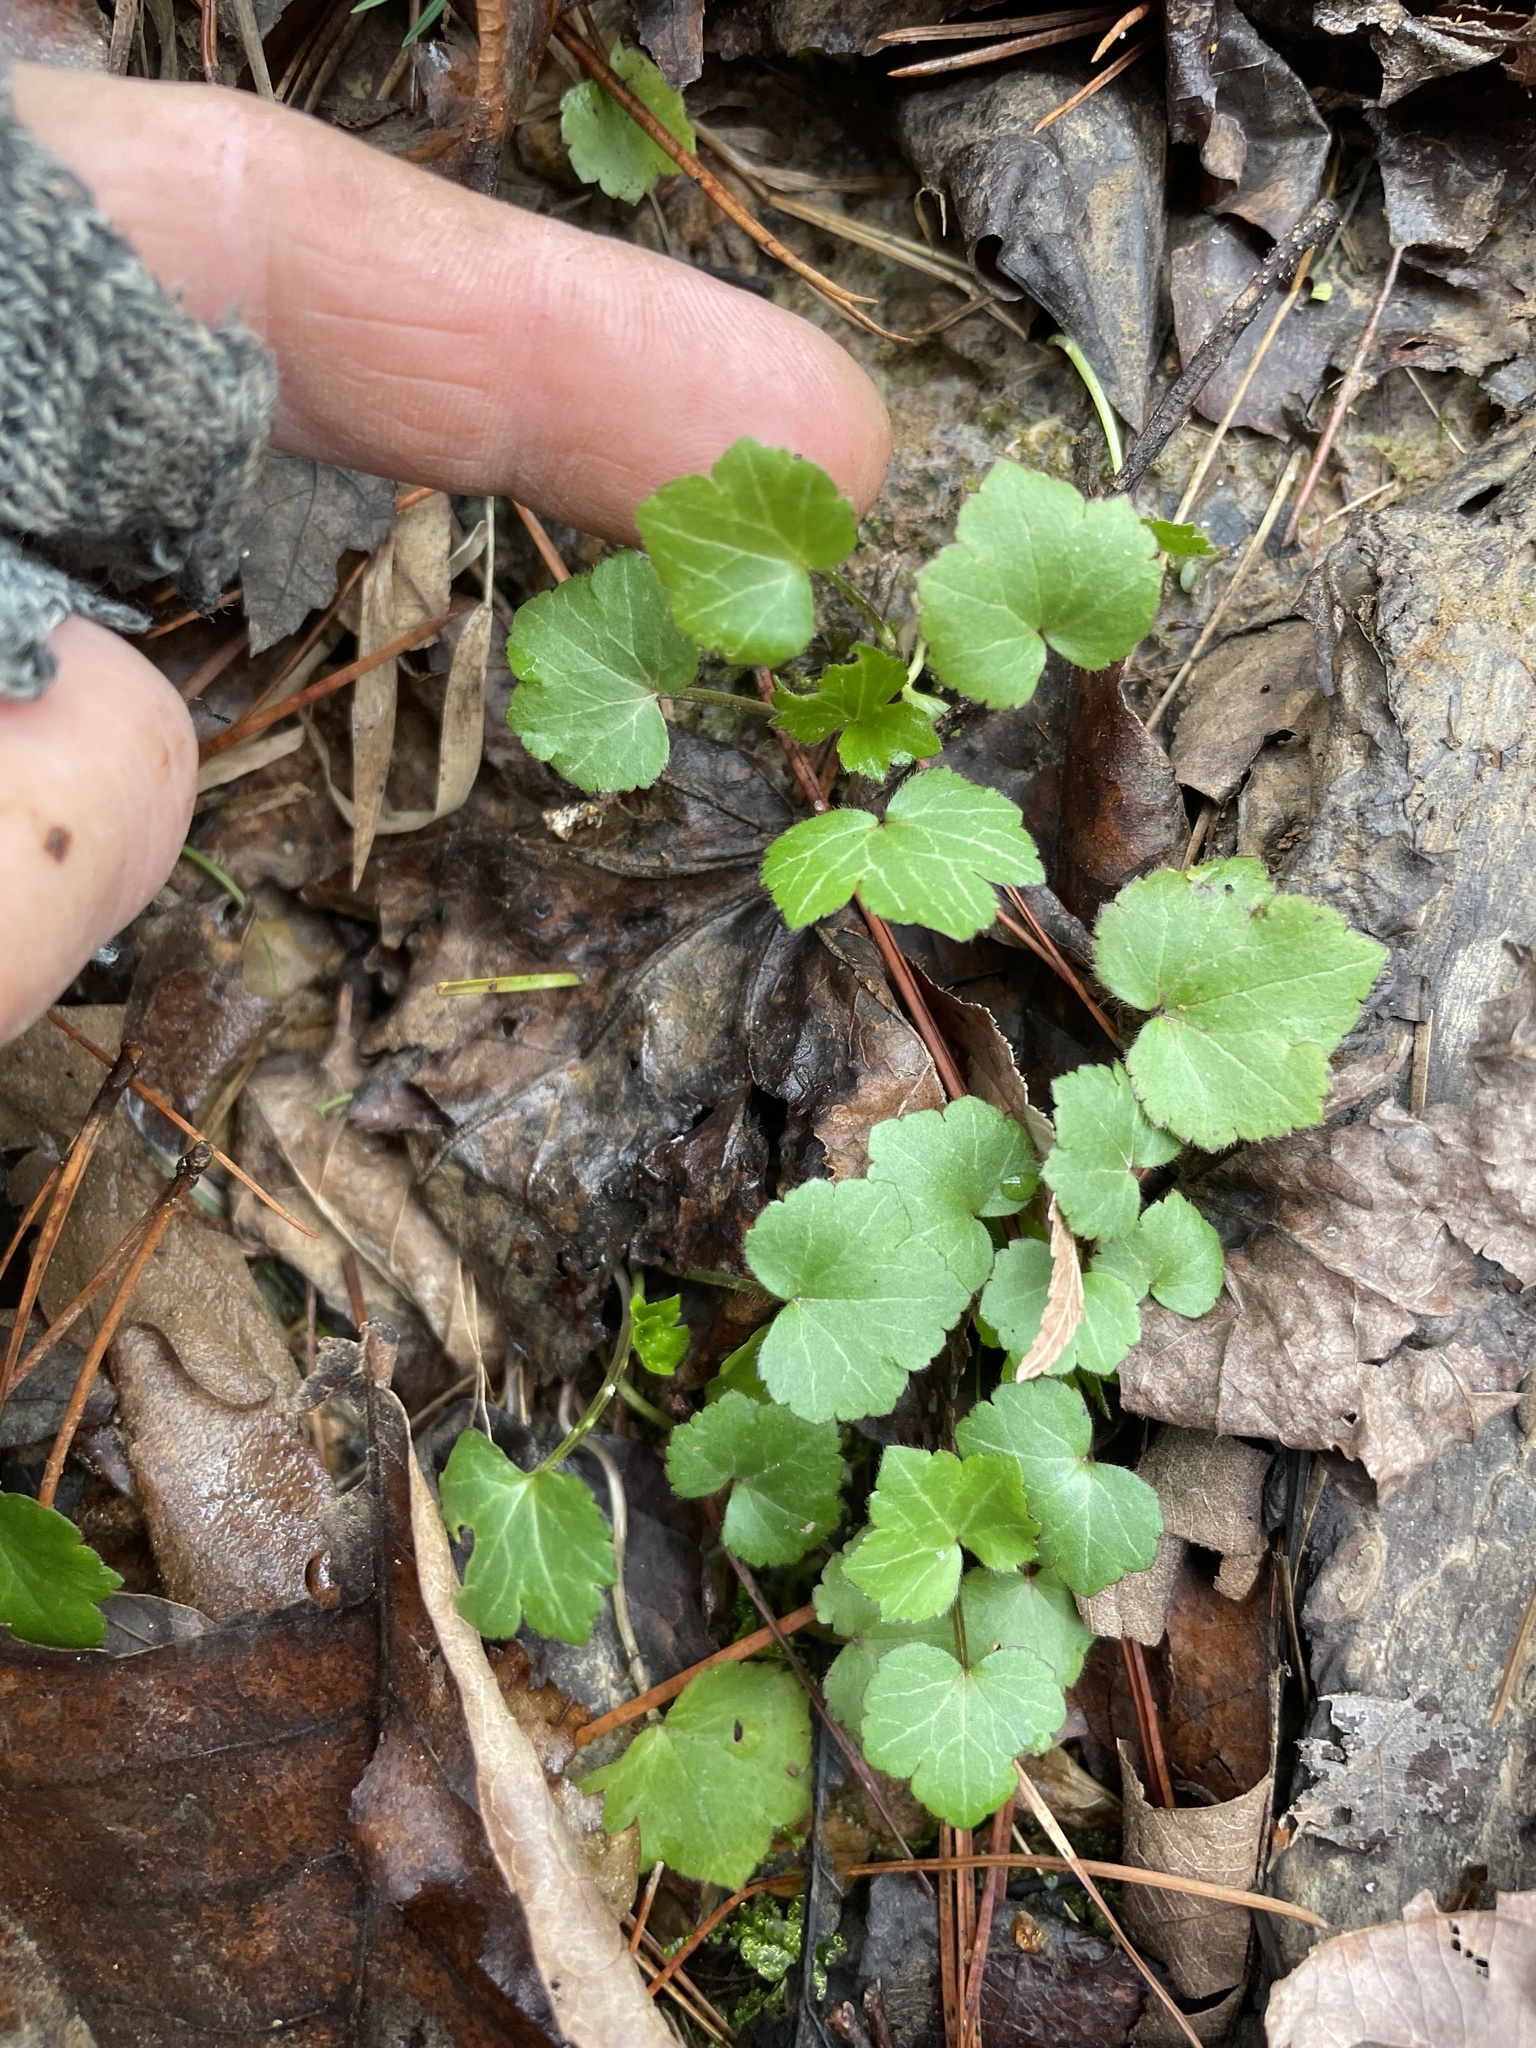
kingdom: Plantae
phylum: Tracheophyta
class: Magnoliopsida
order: Ranunculales
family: Ranunculaceae
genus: Ranunculus
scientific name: Ranunculus recurvatus
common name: Blisterwort
